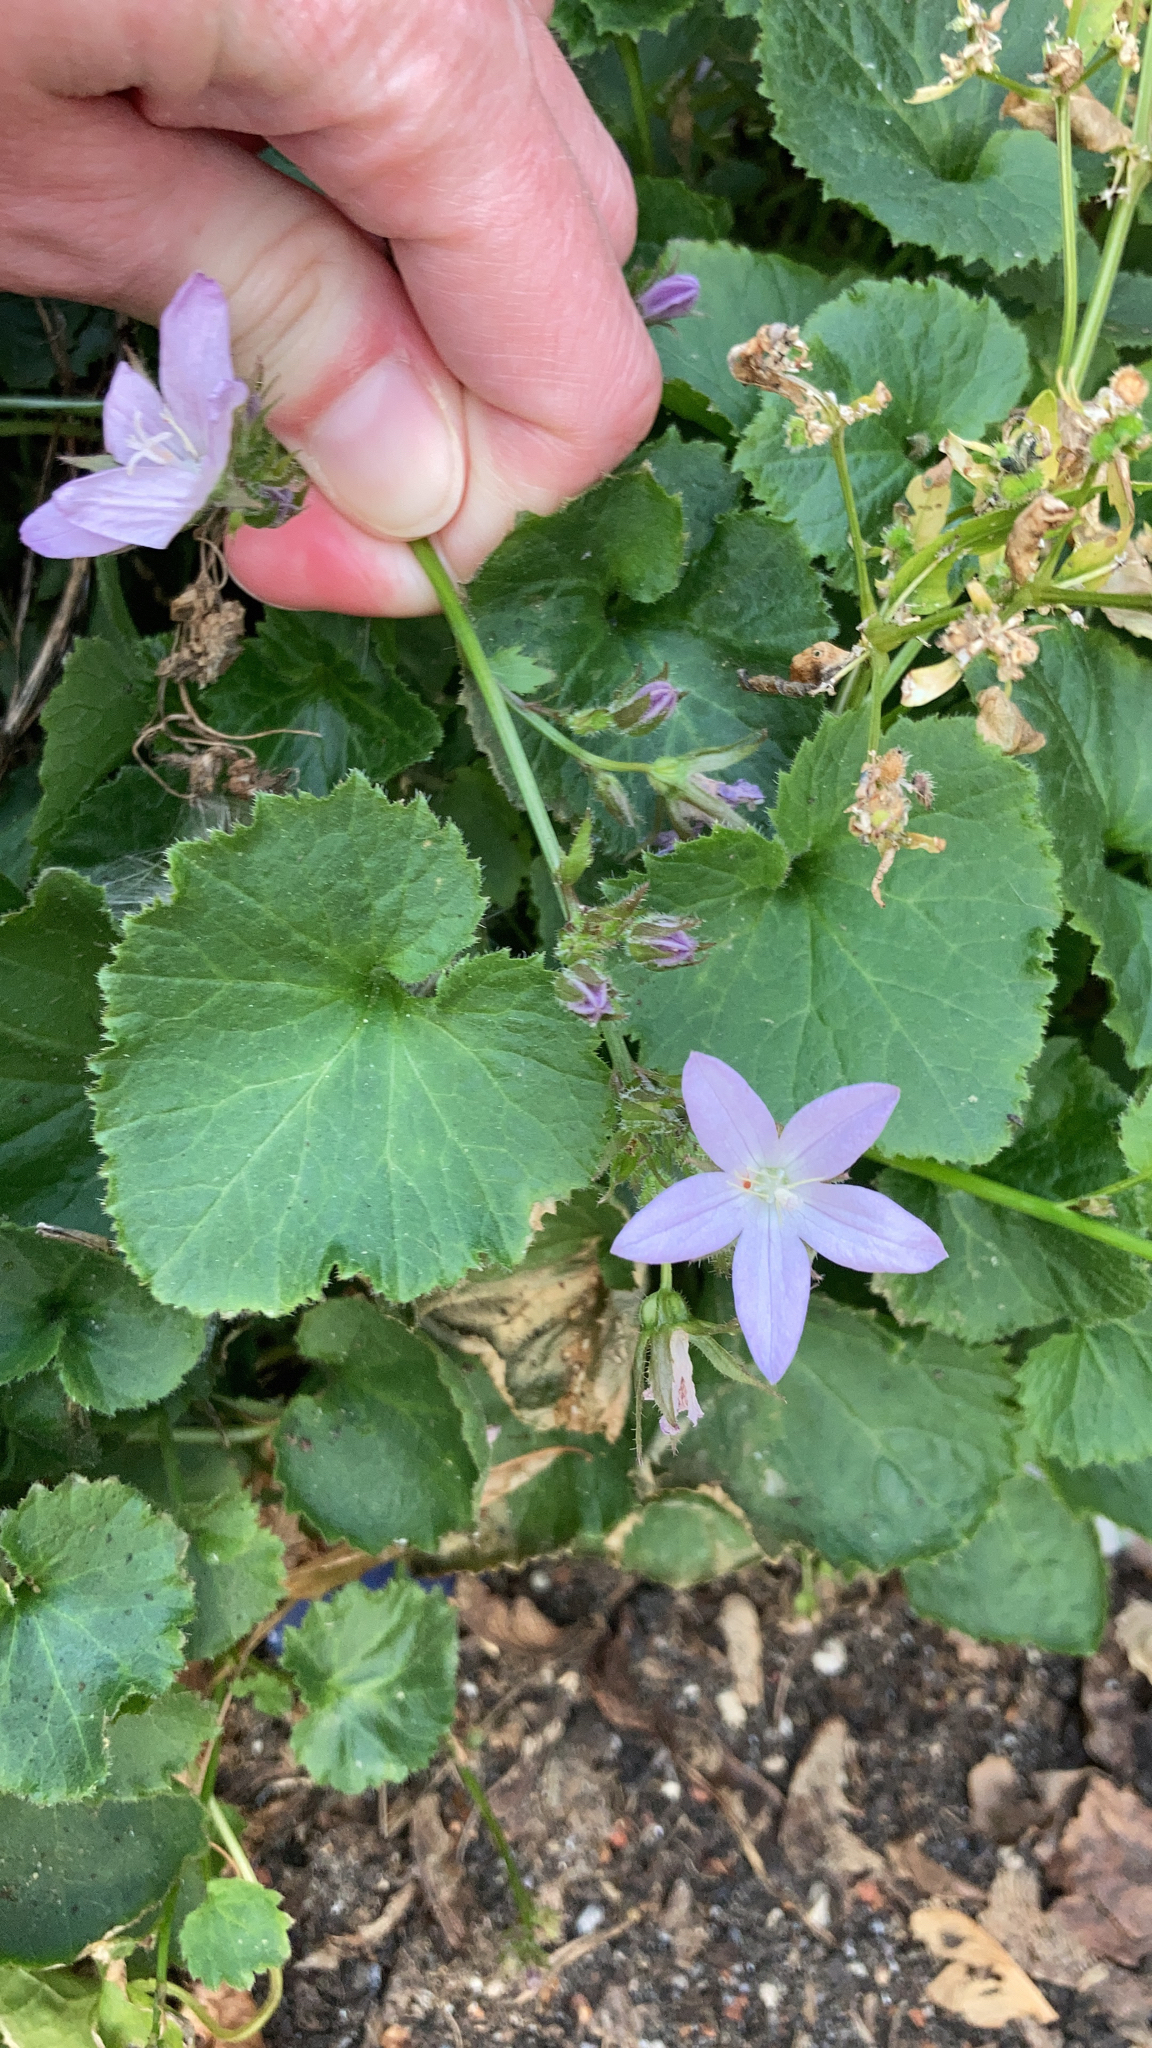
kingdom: Plantae
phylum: Tracheophyta
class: Magnoliopsida
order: Asterales
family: Campanulaceae
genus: Campanula
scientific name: Campanula poscharskyana
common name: Trailing bellflower
